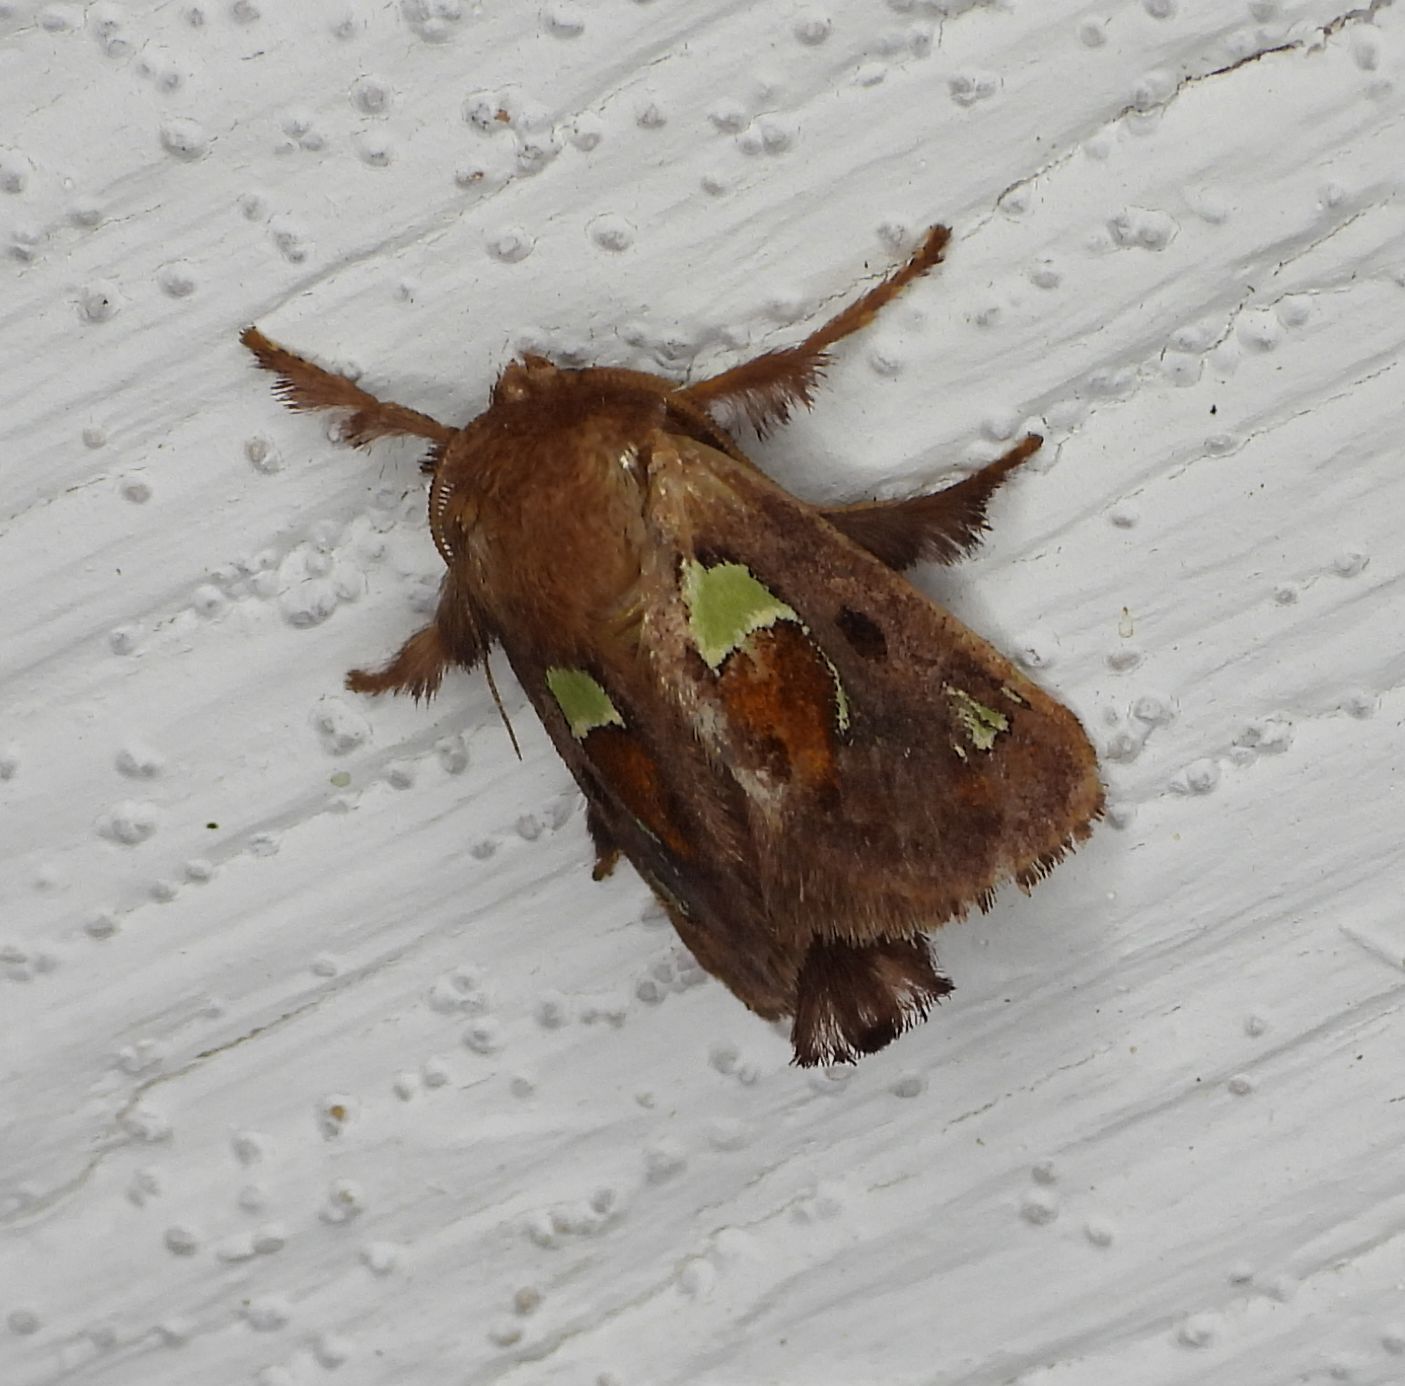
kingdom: Animalia
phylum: Arthropoda
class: Insecta
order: Lepidoptera
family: Limacodidae
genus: Euclea
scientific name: Euclea delphinii
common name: Spiny oak-slug moth
